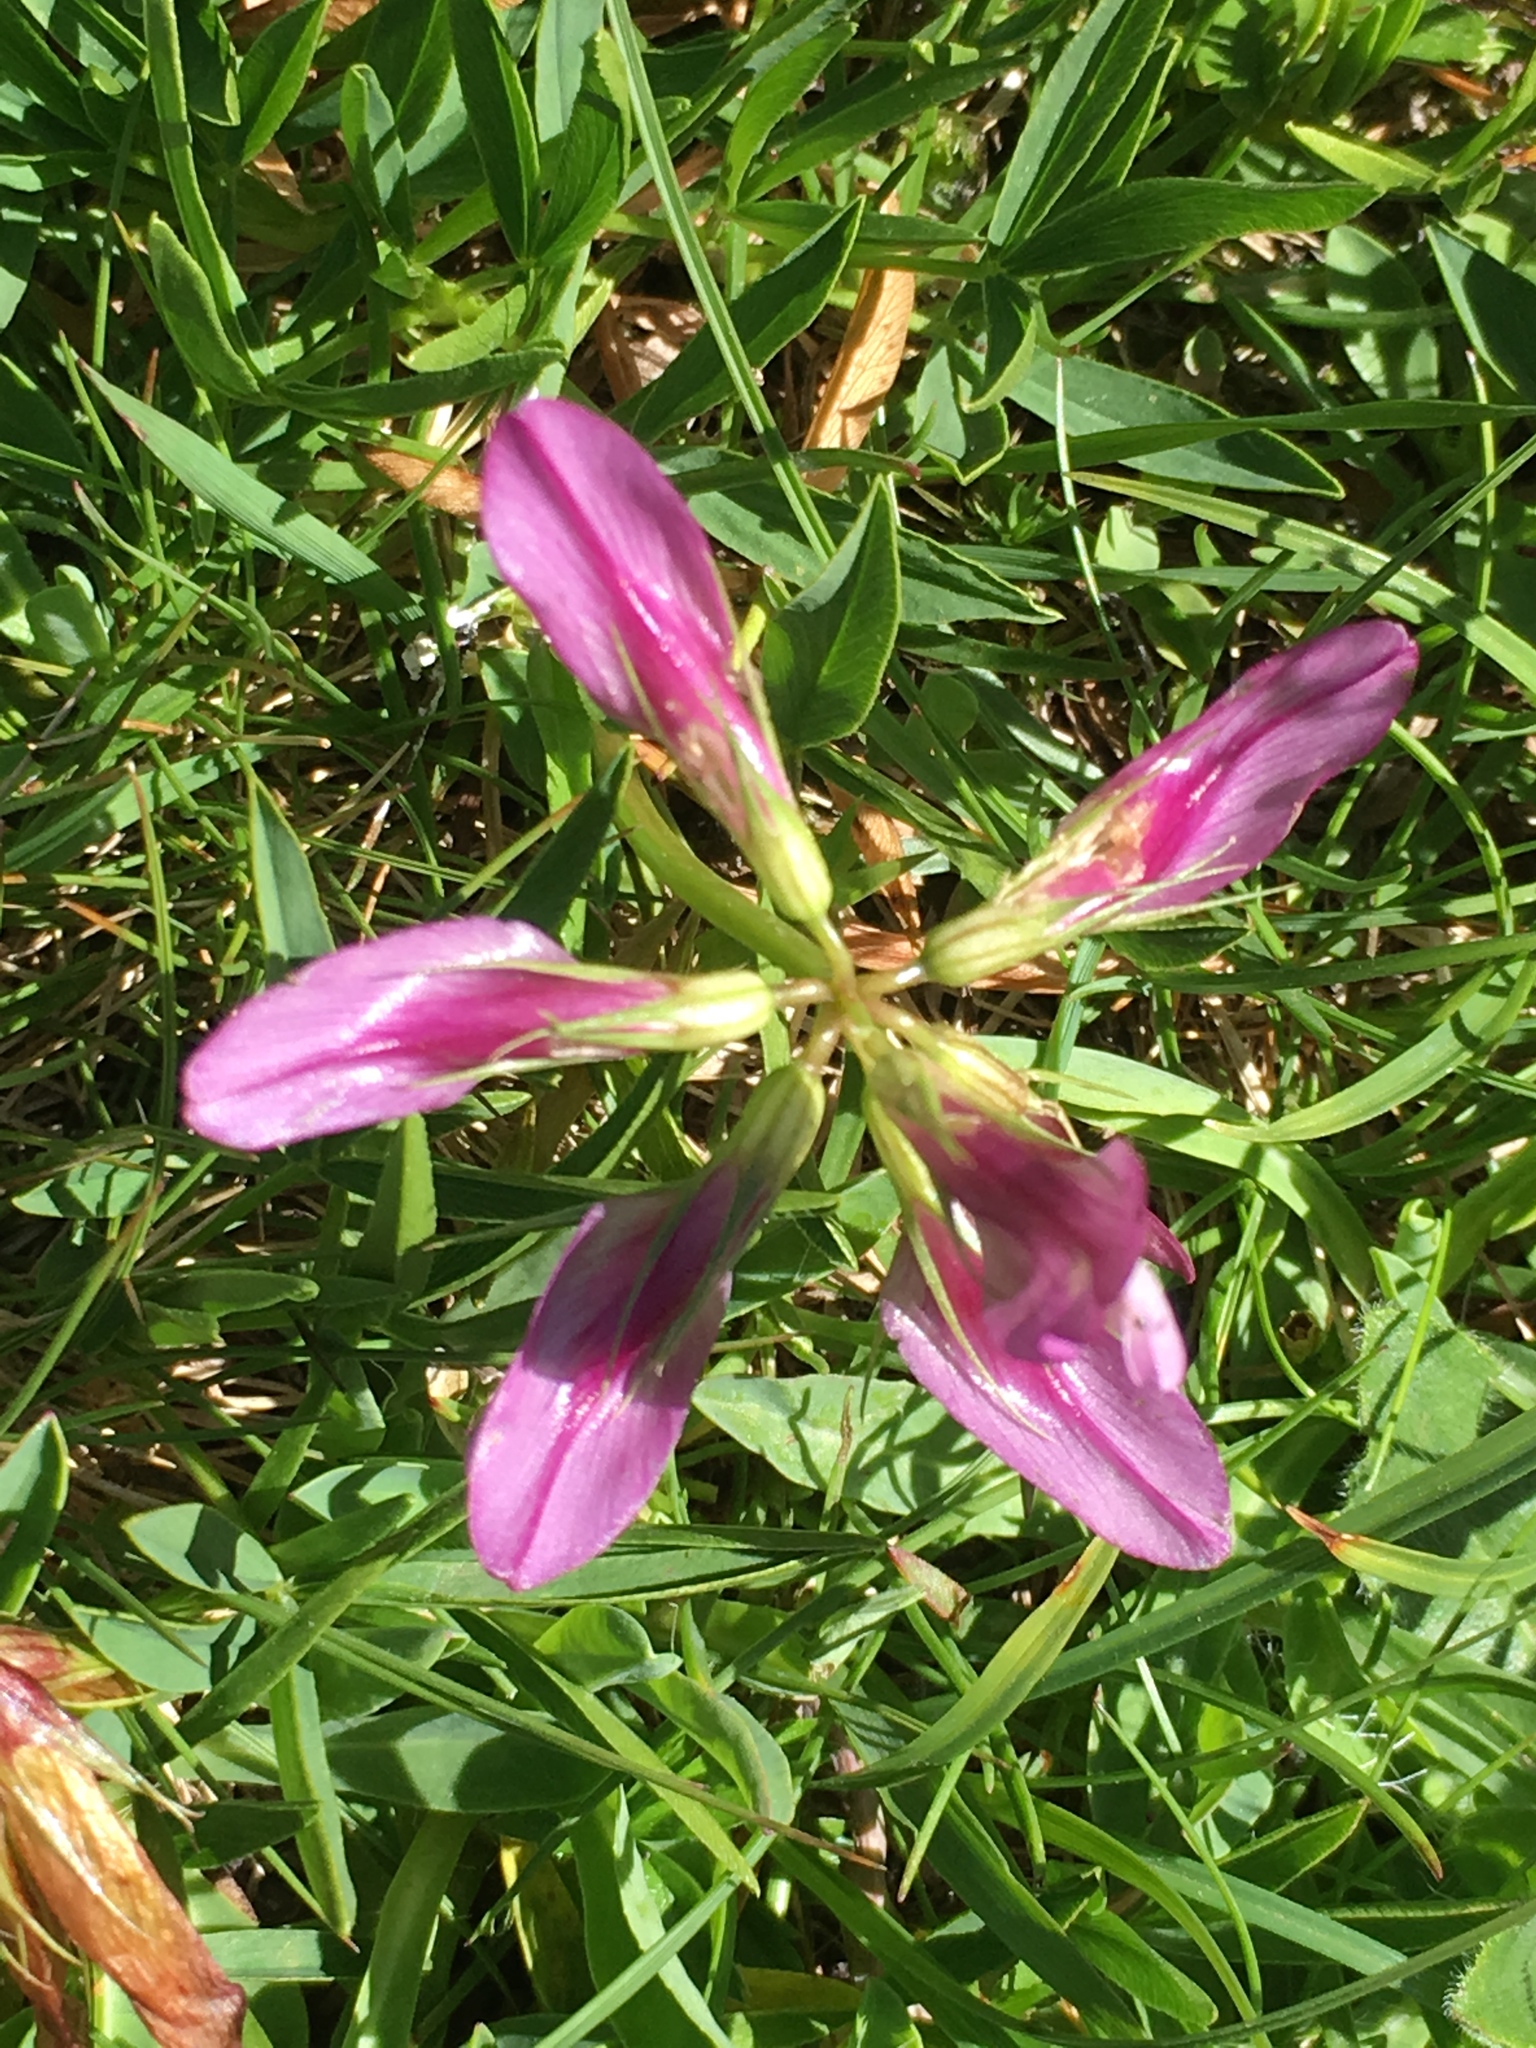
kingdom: Plantae
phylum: Tracheophyta
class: Magnoliopsida
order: Fabales
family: Fabaceae
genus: Trifolium
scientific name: Trifolium alpinum
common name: Alpine clover
